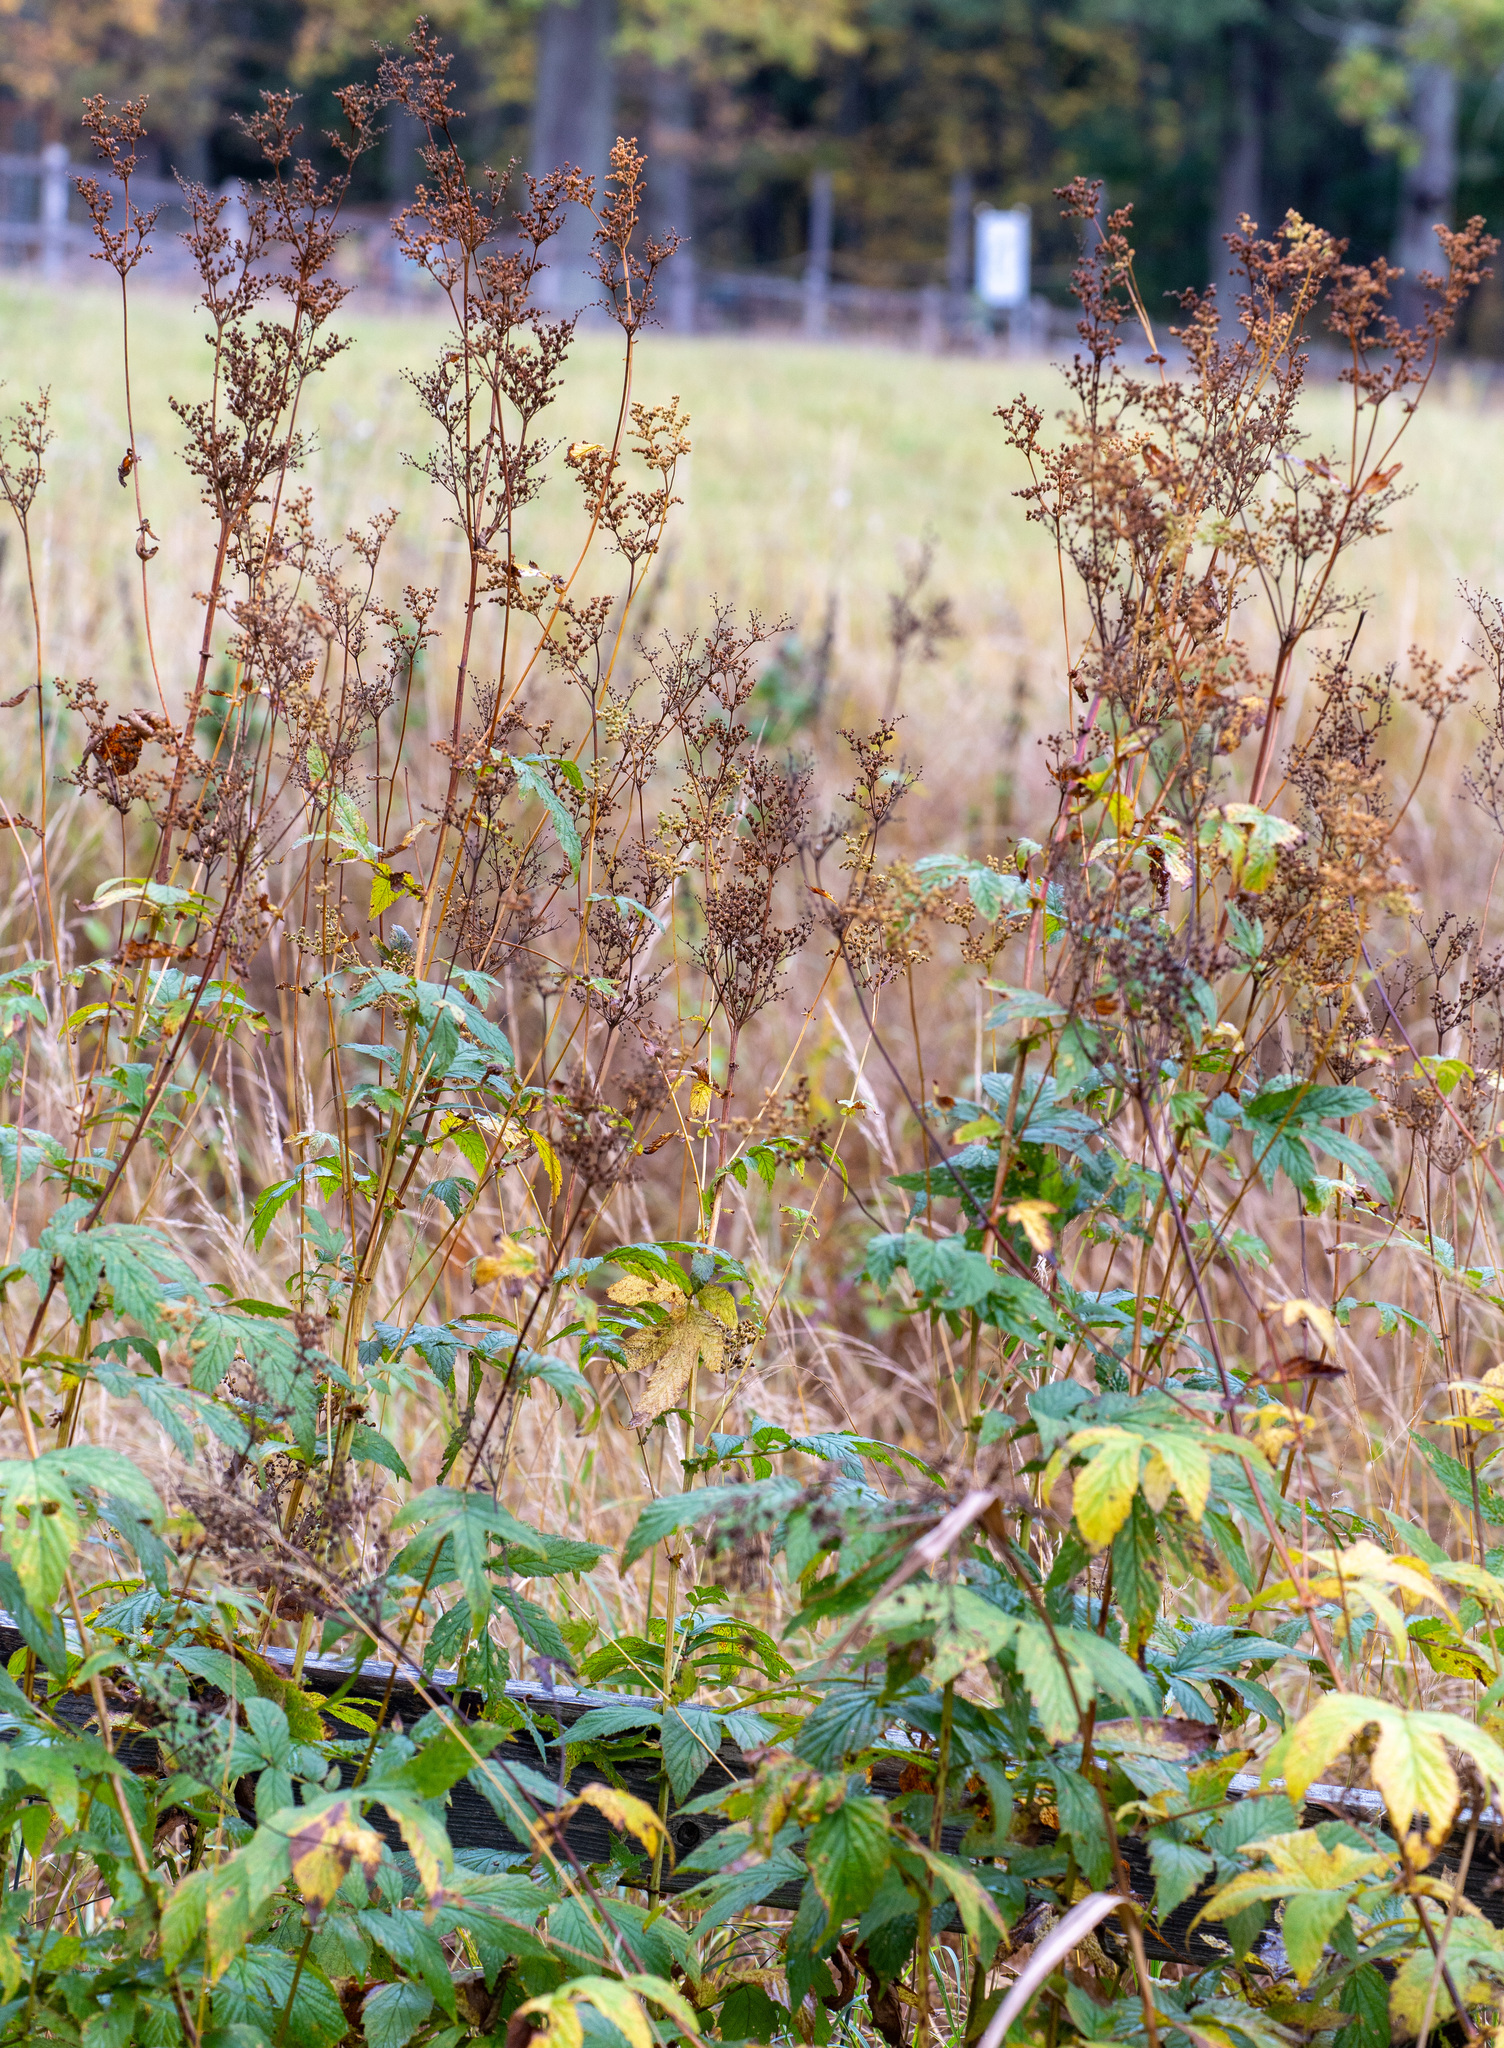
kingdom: Plantae
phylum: Tracheophyta
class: Magnoliopsida
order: Rosales
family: Rosaceae
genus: Filipendula
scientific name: Filipendula ulmaria
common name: Meadowsweet
